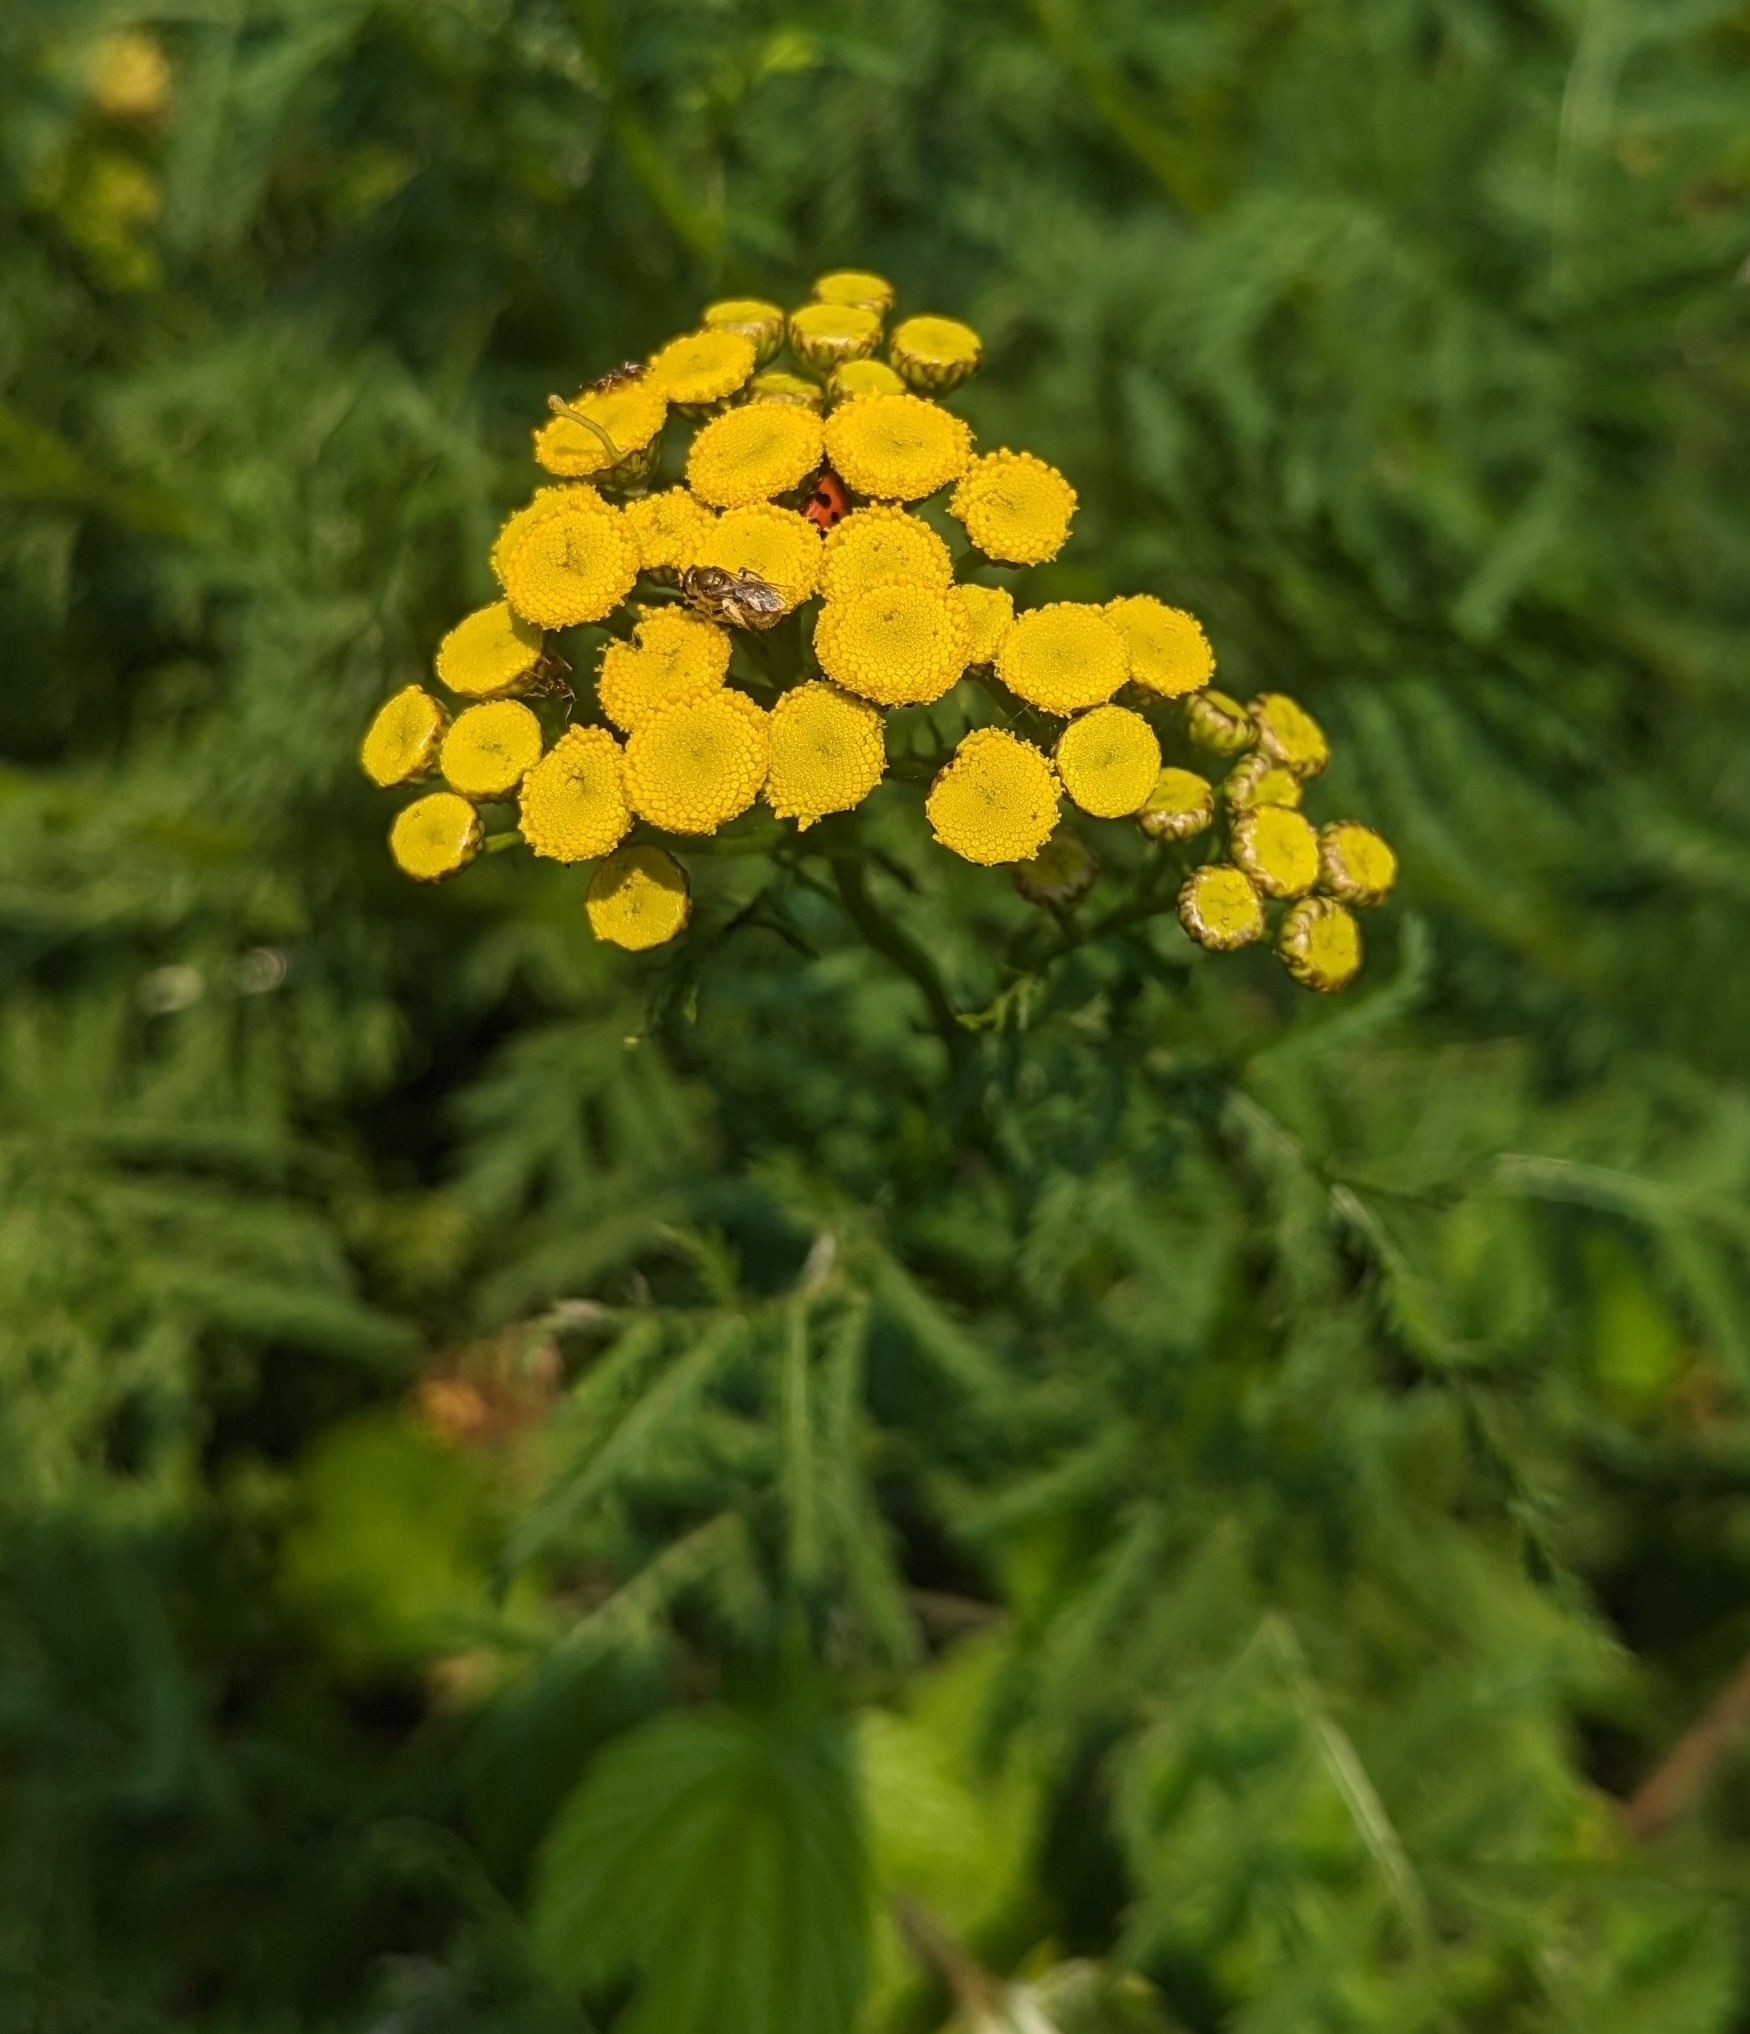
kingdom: Plantae
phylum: Tracheophyta
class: Magnoliopsida
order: Asterales
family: Asteraceae
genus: Tanacetum
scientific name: Tanacetum vulgare
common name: Common tansy
